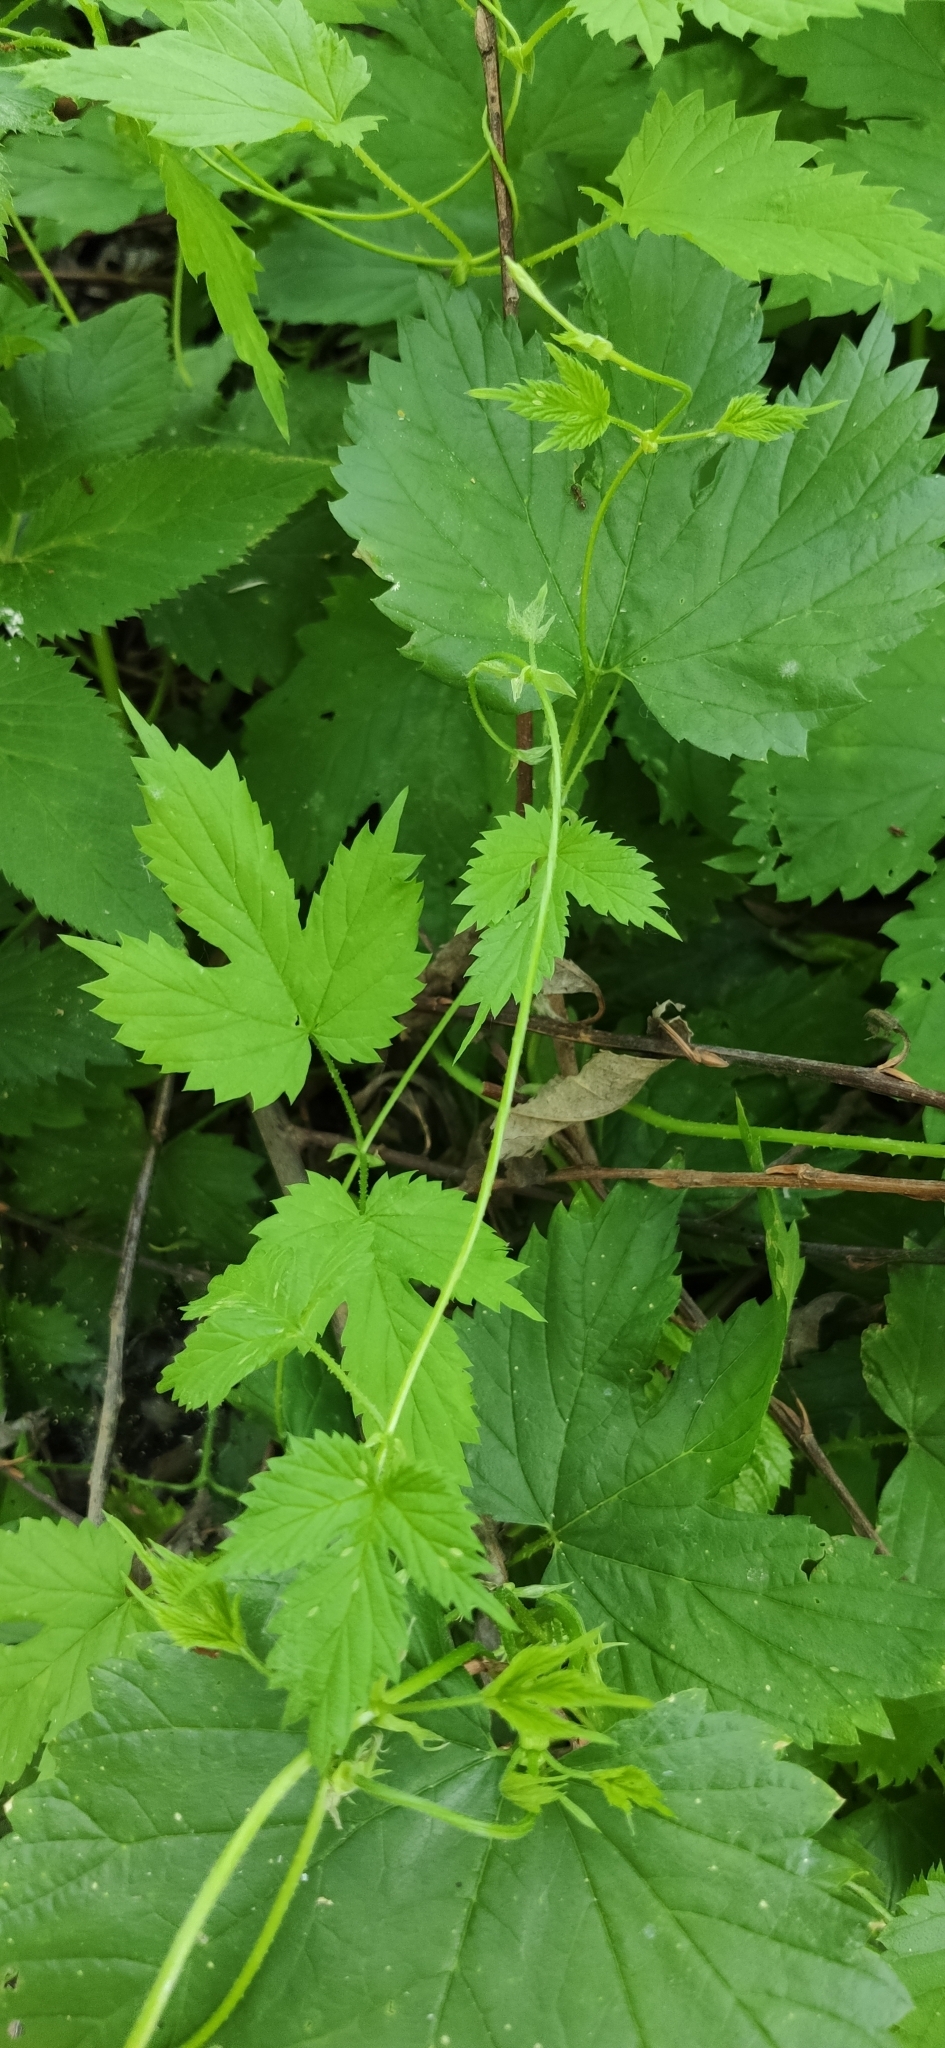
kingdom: Plantae
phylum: Tracheophyta
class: Magnoliopsida
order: Rosales
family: Cannabaceae
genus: Humulus
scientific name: Humulus lupulus
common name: Hop
